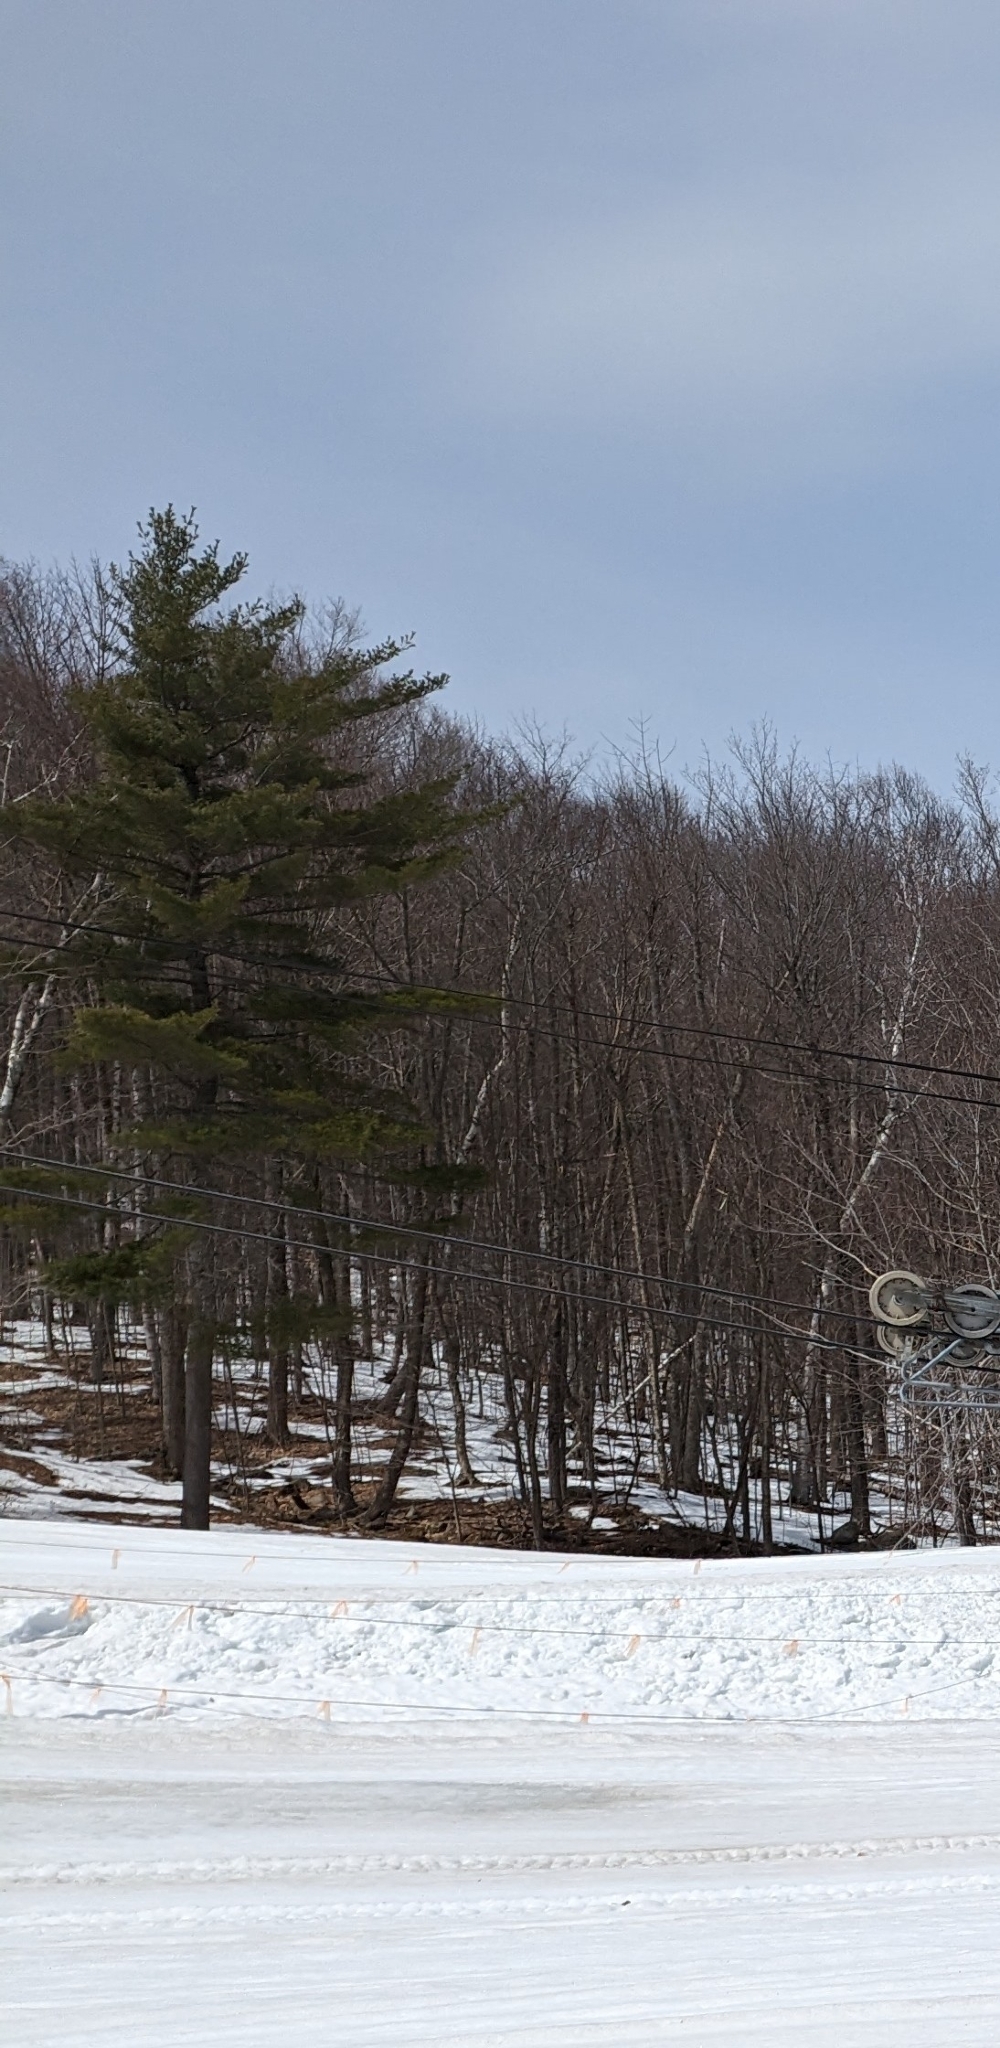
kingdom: Plantae
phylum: Tracheophyta
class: Pinopsida
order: Pinales
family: Pinaceae
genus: Pinus
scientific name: Pinus strobus
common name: Weymouth pine
